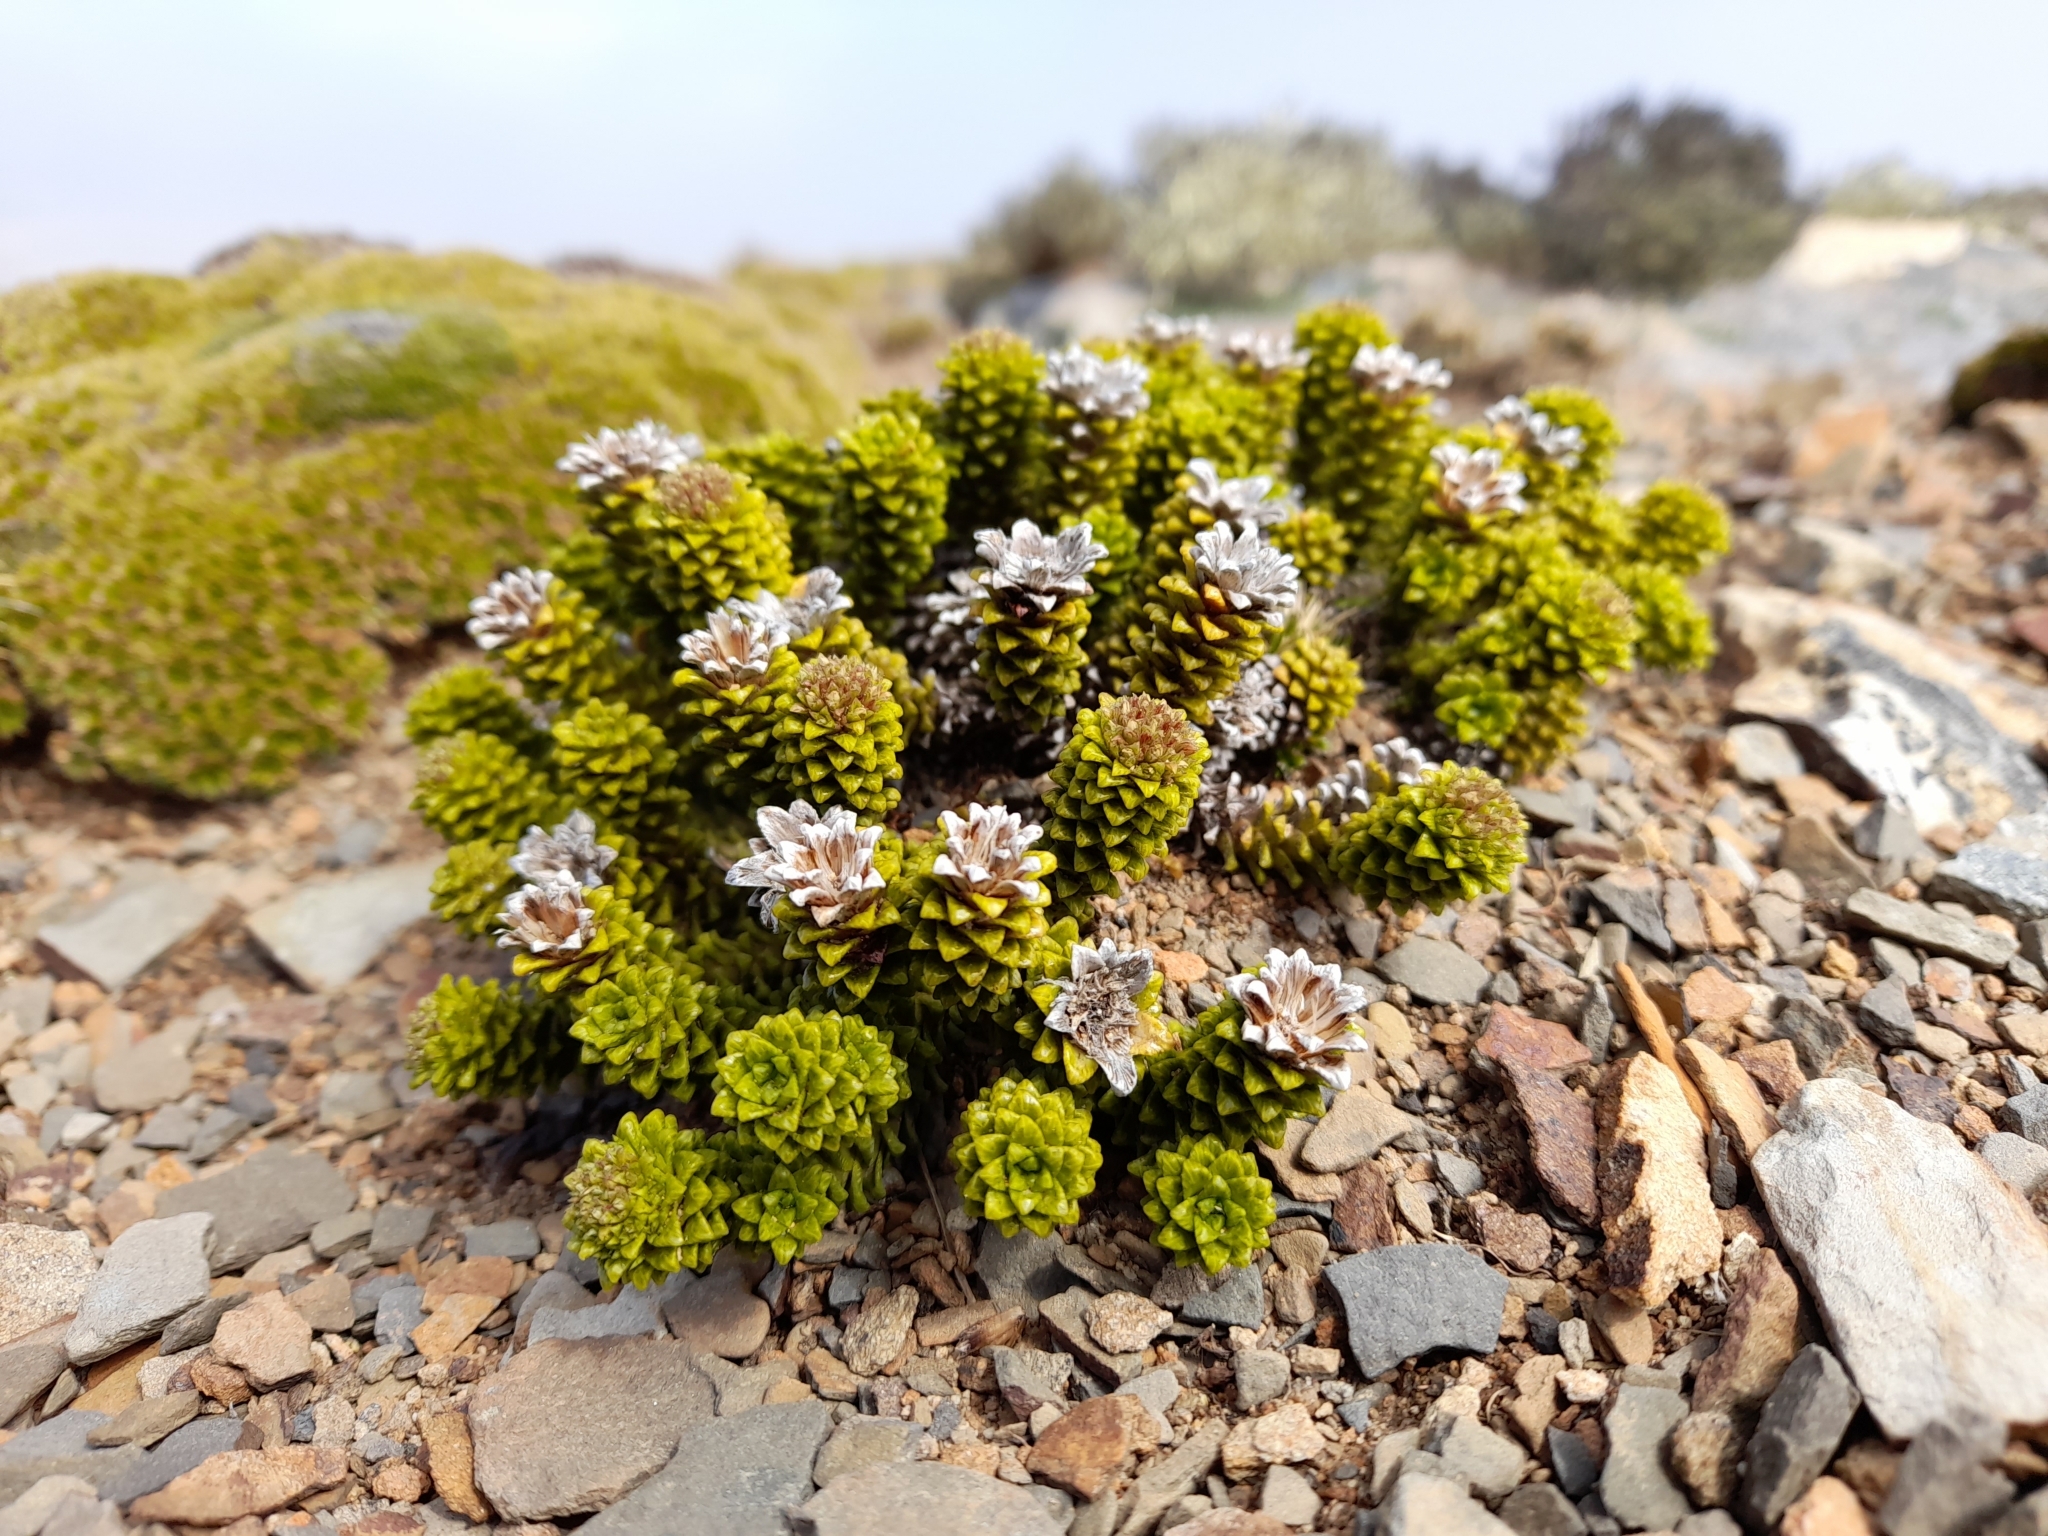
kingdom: Plantae
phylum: Tracheophyta
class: Magnoliopsida
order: Asterales
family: Asteraceae
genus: Nassauvia
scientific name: Nassauvia falklandica
